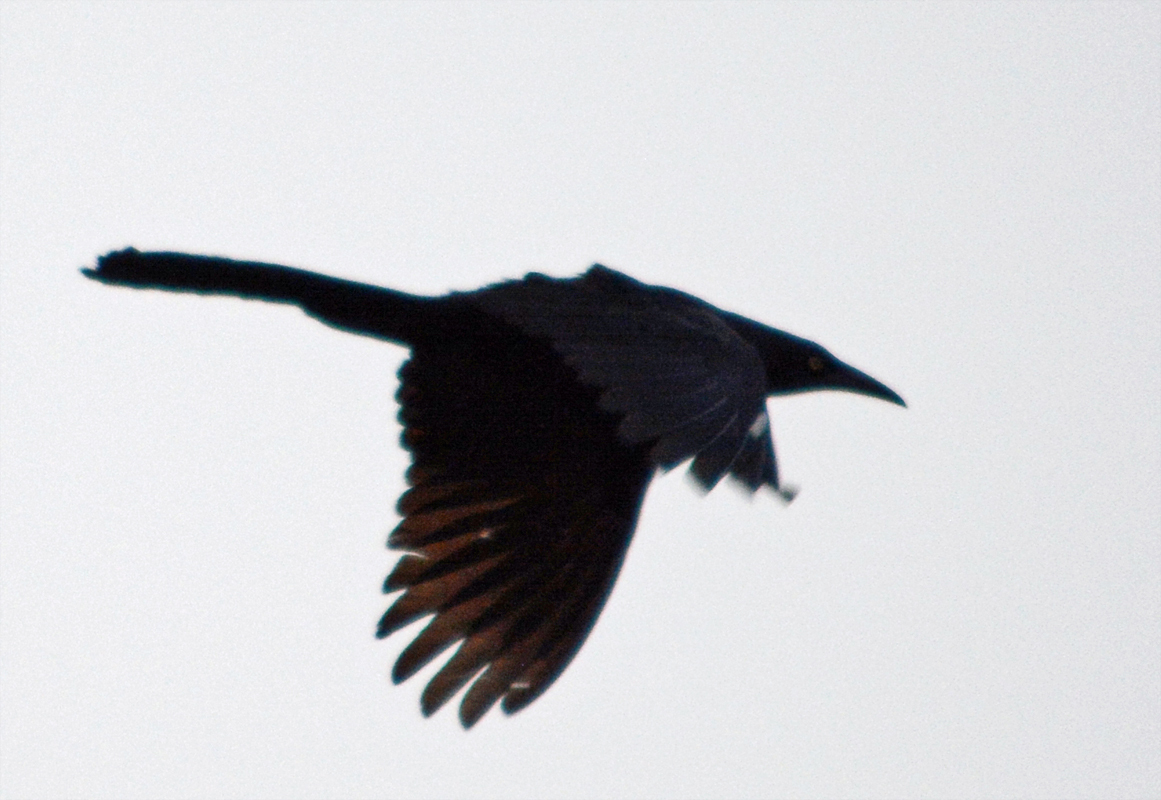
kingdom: Animalia
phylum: Chordata
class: Aves
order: Passeriformes
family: Icteridae
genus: Quiscalus
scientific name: Quiscalus mexicanus
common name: Great-tailed grackle
